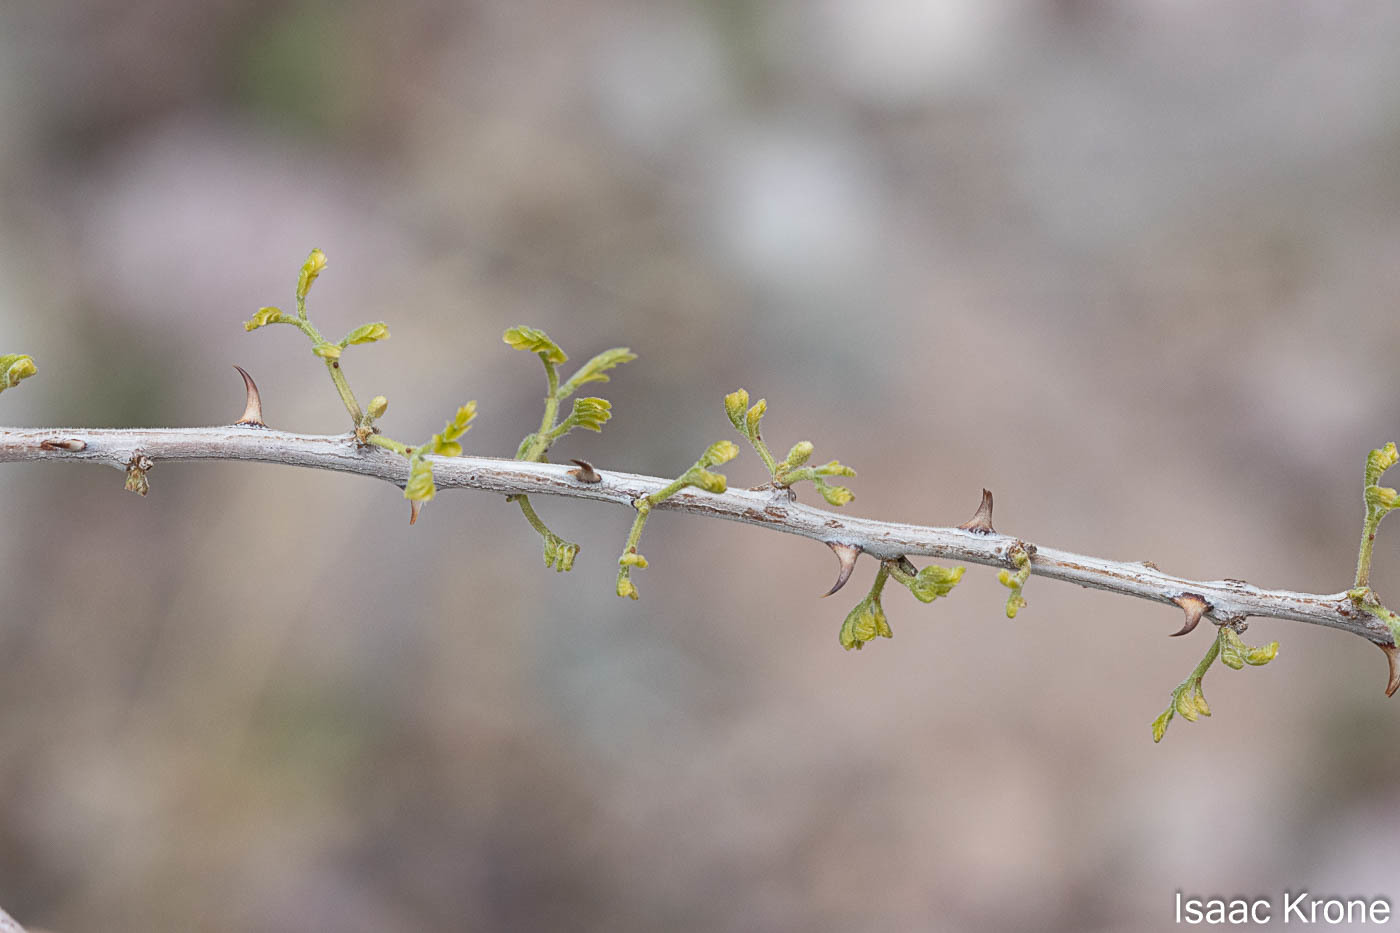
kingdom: Plantae
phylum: Tracheophyta
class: Magnoliopsida
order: Fabales
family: Fabaceae
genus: Senegalia
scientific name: Senegalia greggii
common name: Texas-mimosa
